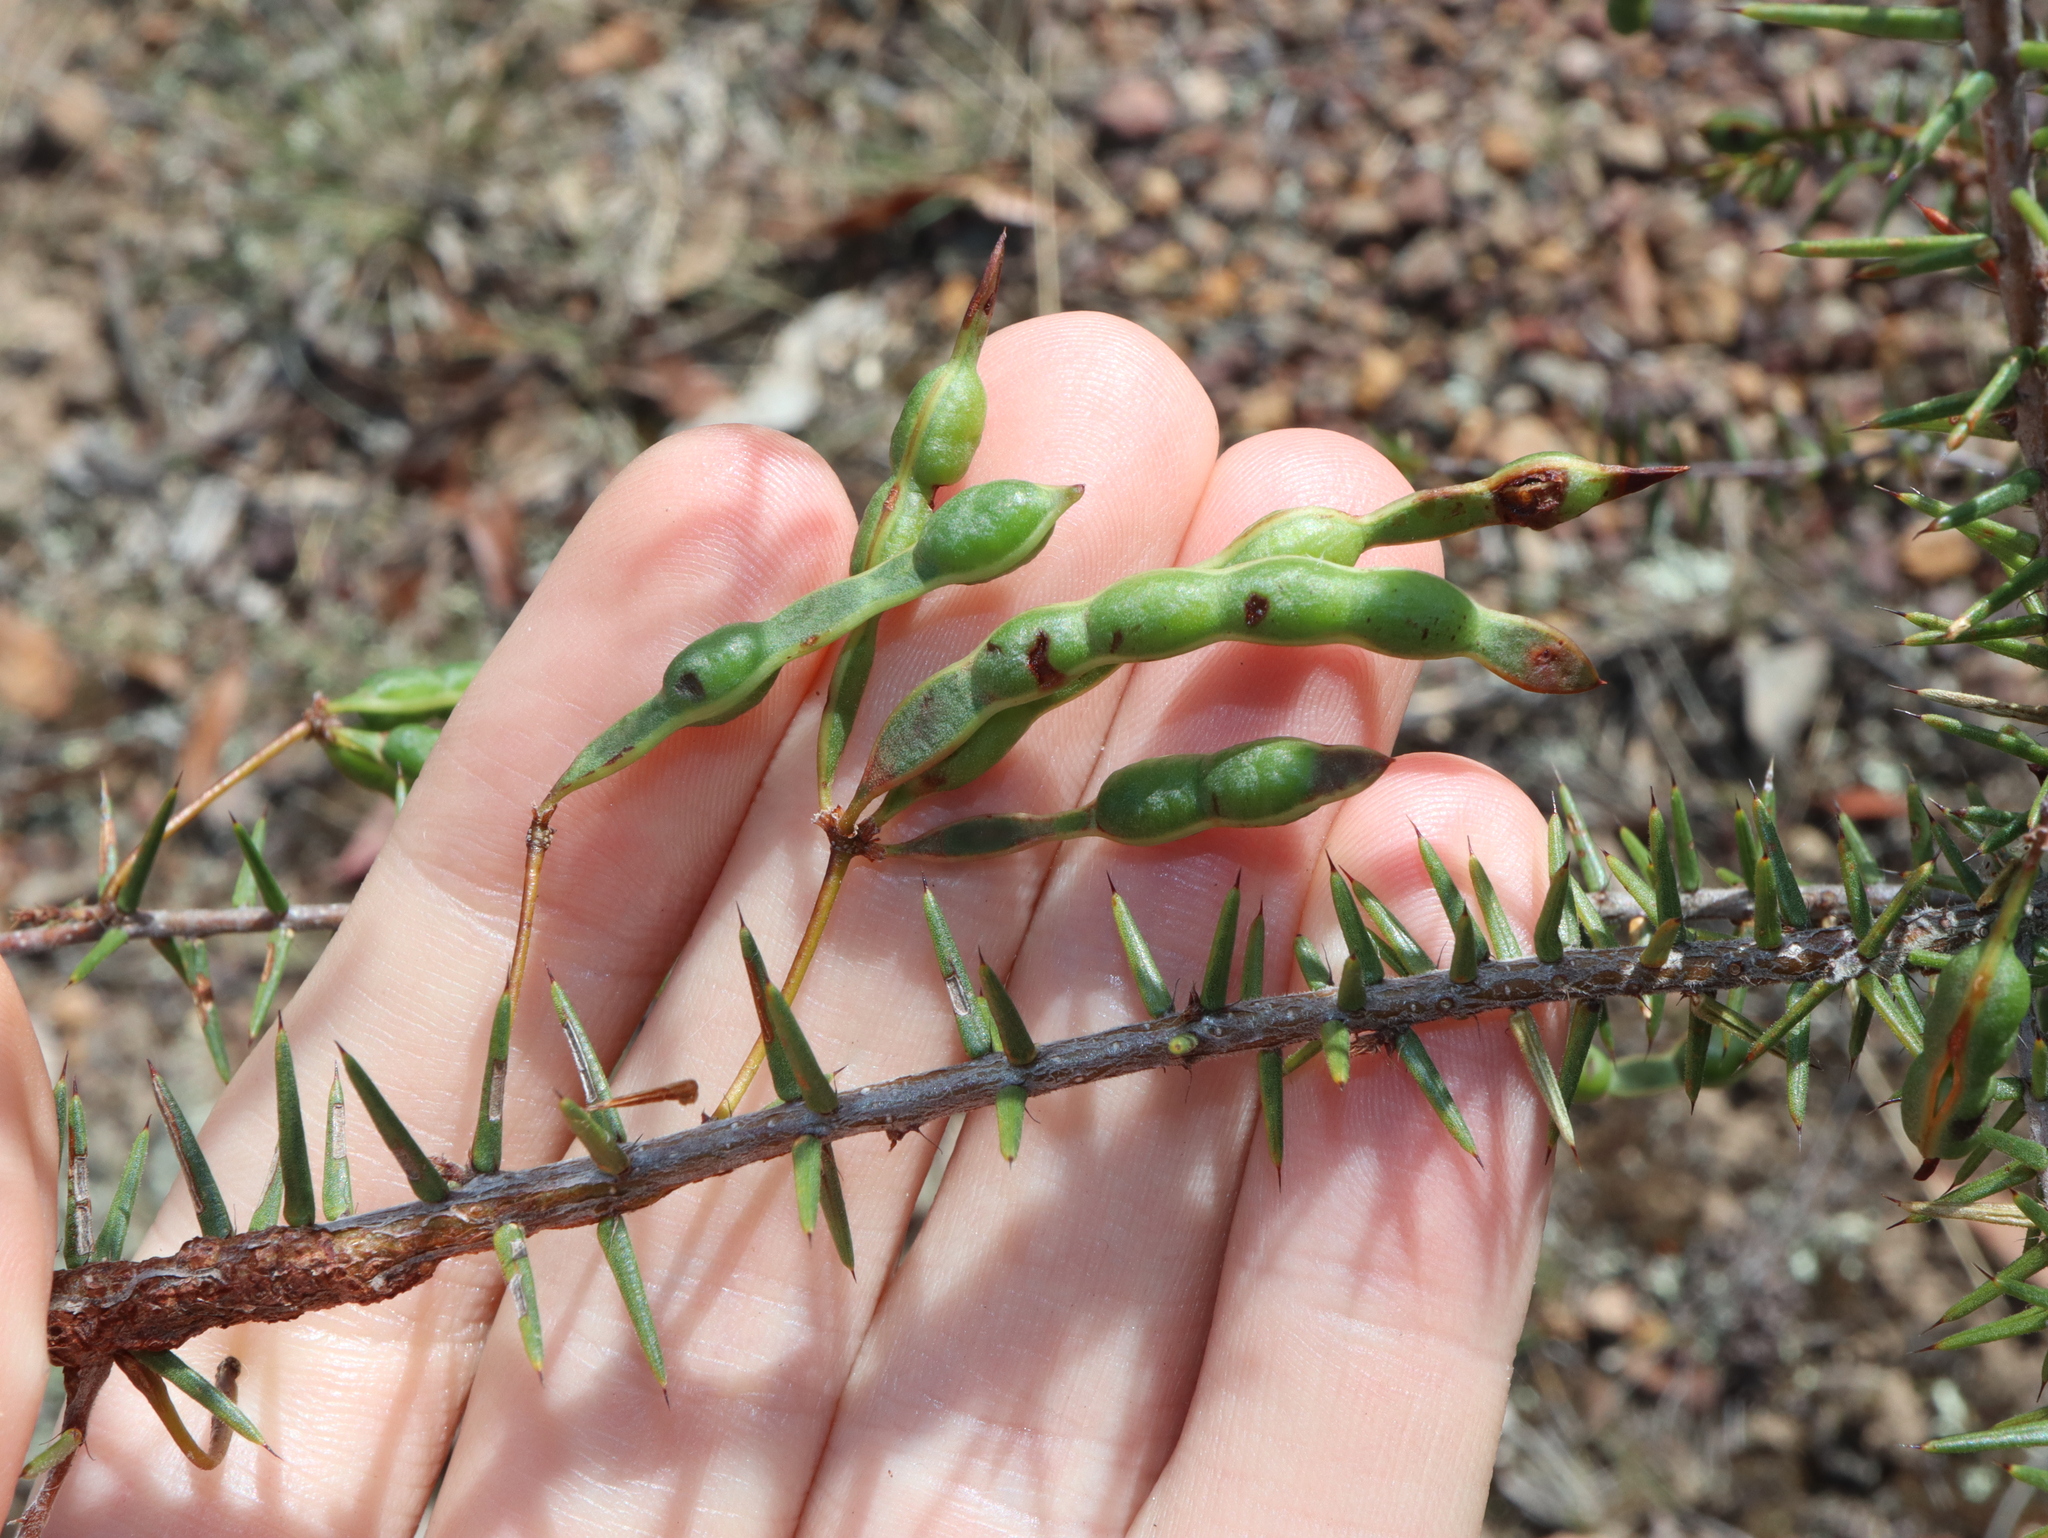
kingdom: Plantae
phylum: Tracheophyta
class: Magnoliopsida
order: Fabales
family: Fabaceae
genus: Acacia
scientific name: Acacia ulicifolia
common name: Juniper wattle
